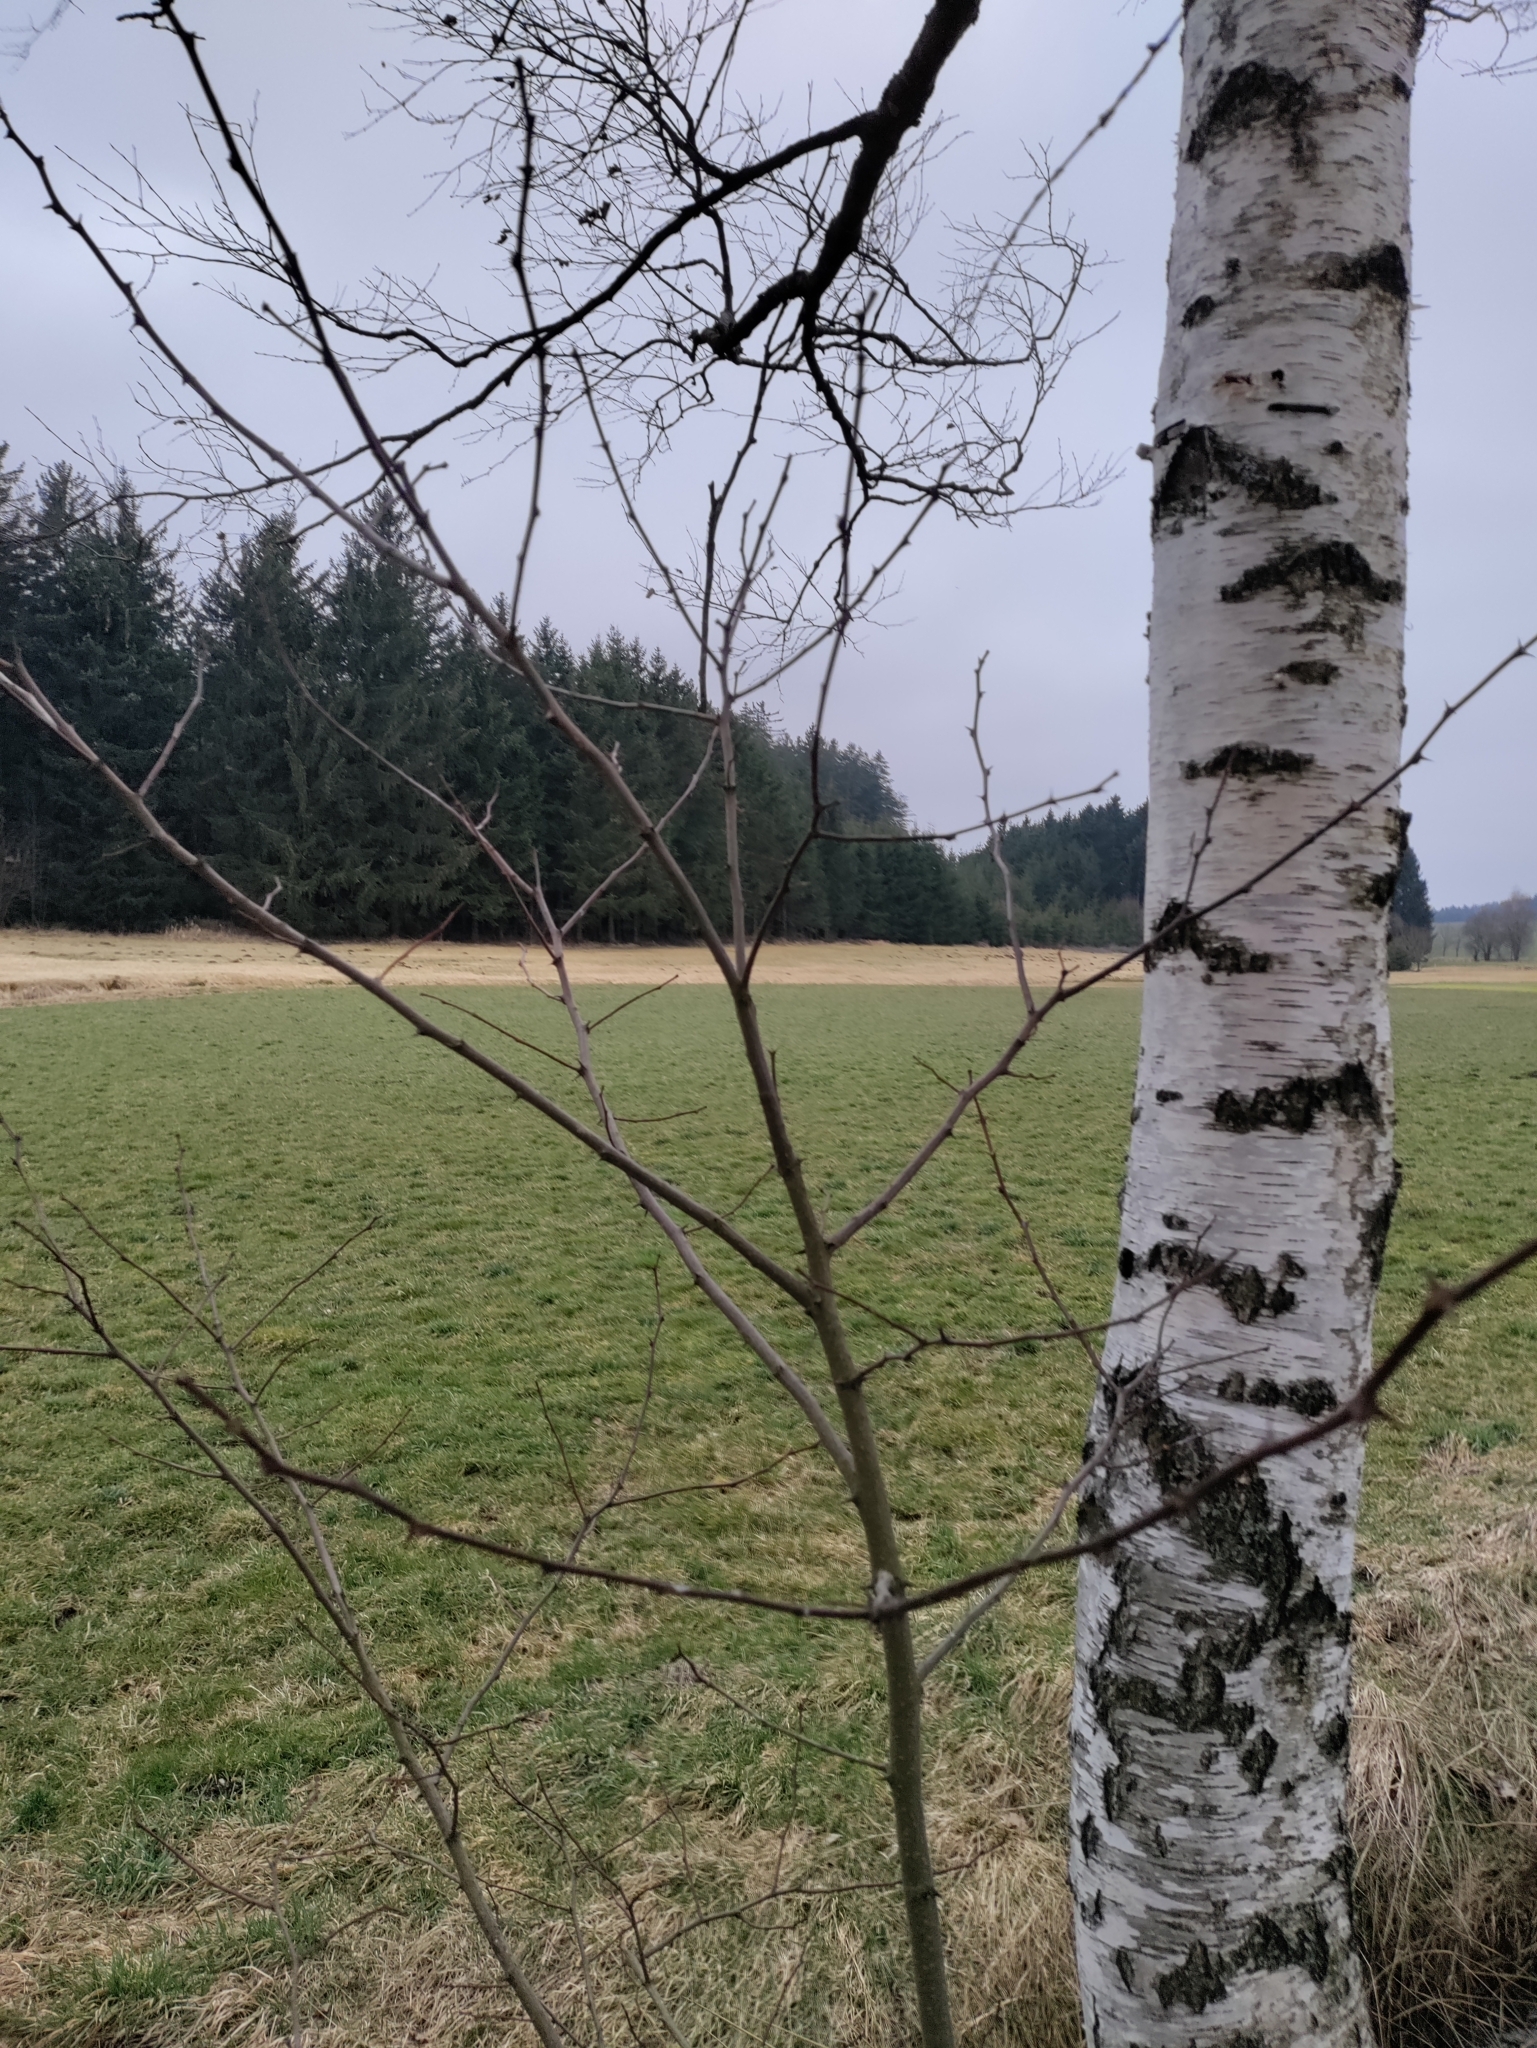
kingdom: Plantae
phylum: Tracheophyta
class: Magnoliopsida
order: Fabales
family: Fabaceae
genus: Robinia
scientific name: Robinia pseudoacacia
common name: Black locust
